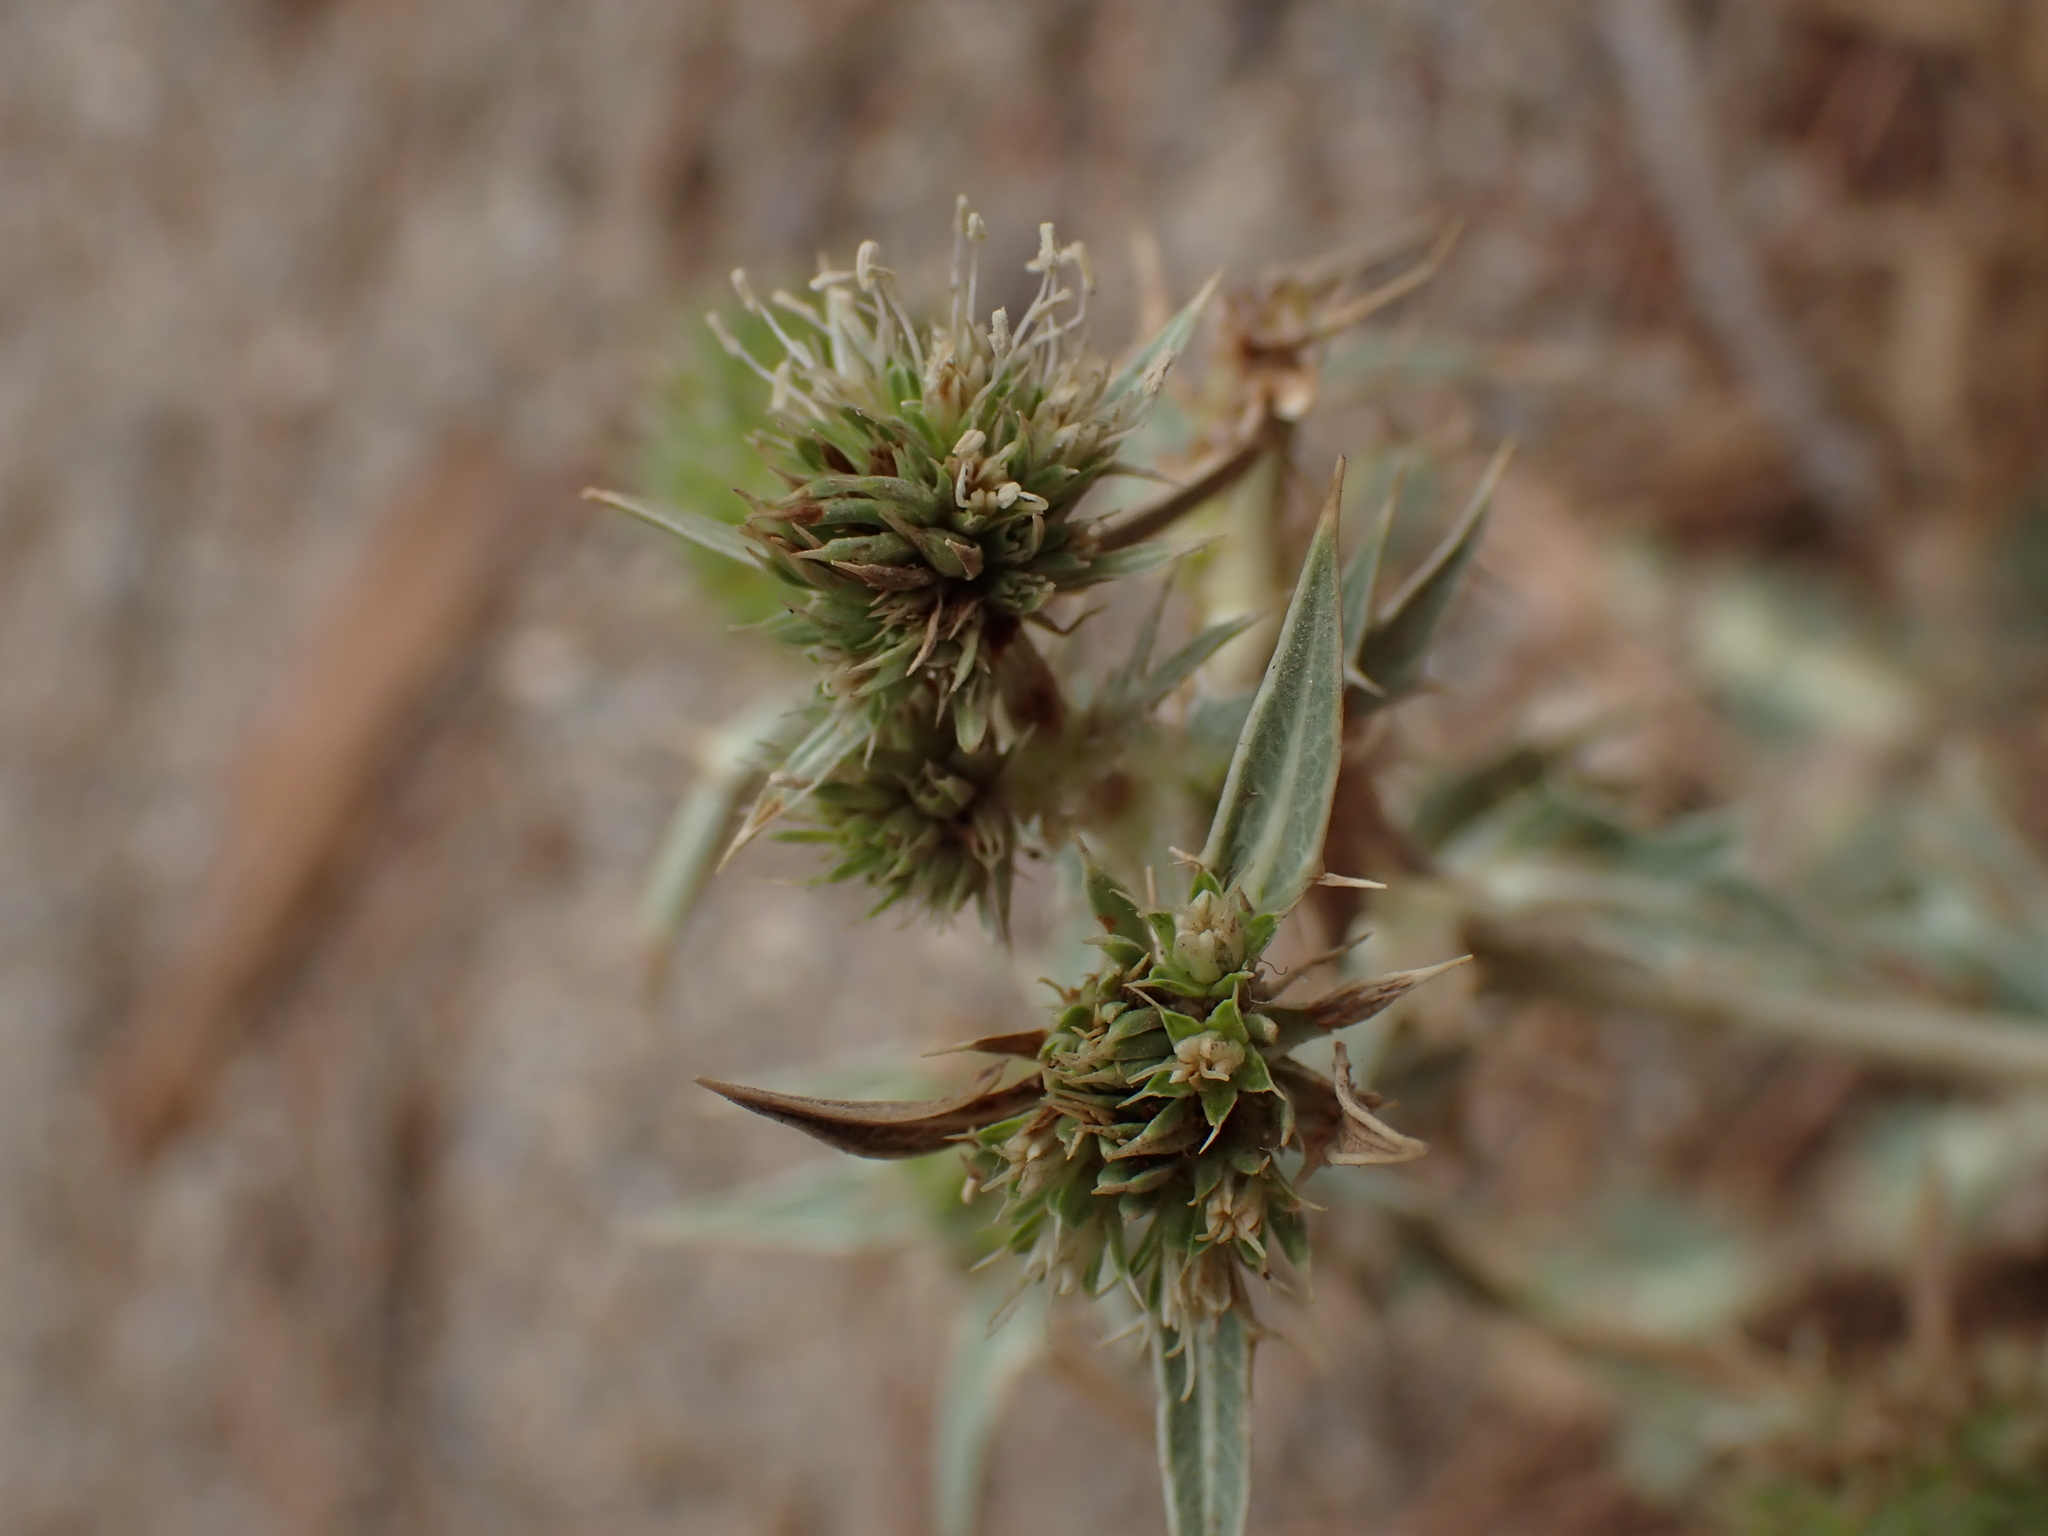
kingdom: Plantae
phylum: Tracheophyta
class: Magnoliopsida
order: Apiales
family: Apiaceae
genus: Eryngium
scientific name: Eryngium campestre
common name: Field eryngo
